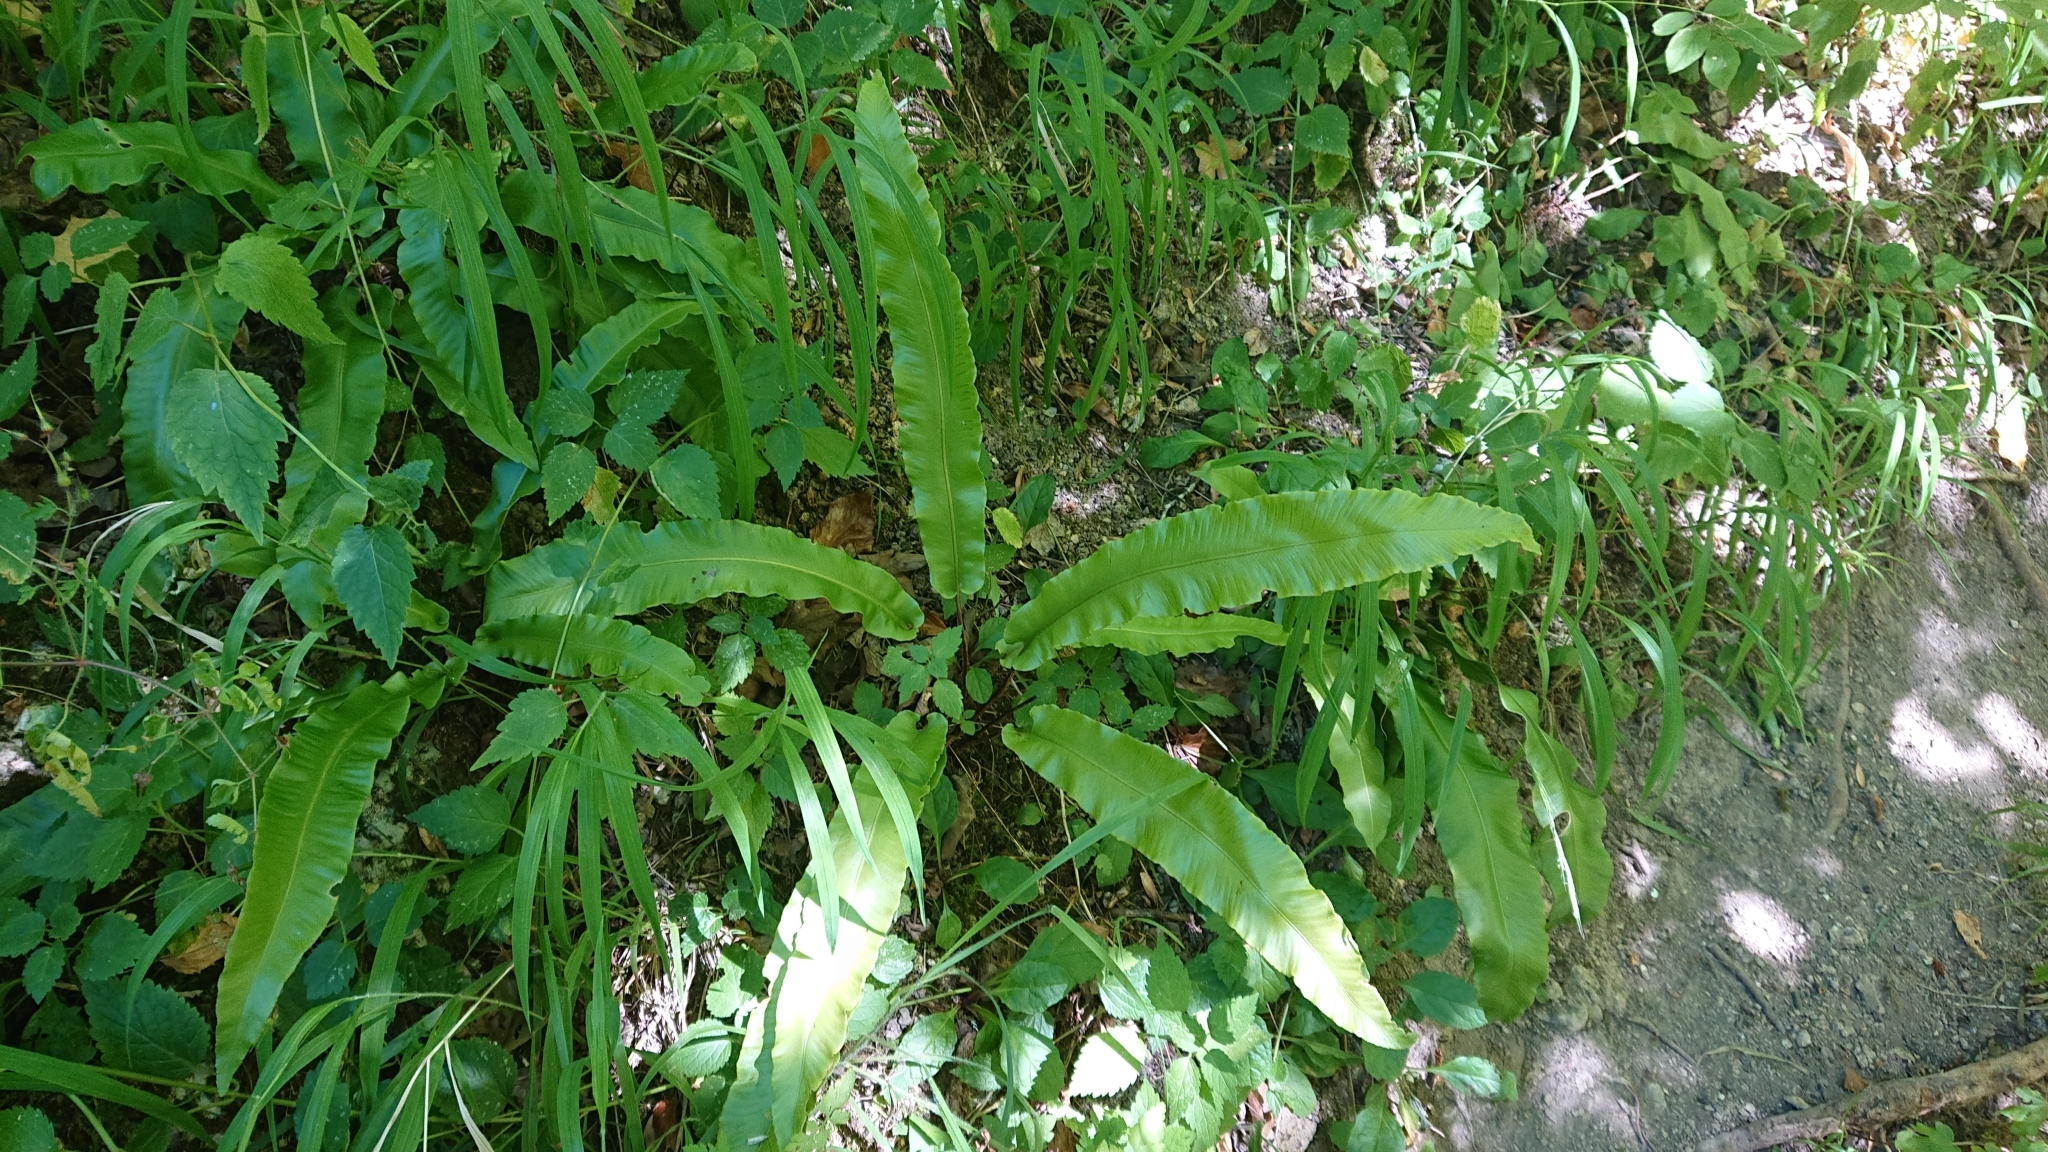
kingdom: Plantae
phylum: Tracheophyta
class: Polypodiopsida
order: Polypodiales
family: Aspleniaceae
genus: Asplenium
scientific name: Asplenium scolopendrium
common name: Hart's-tongue fern
